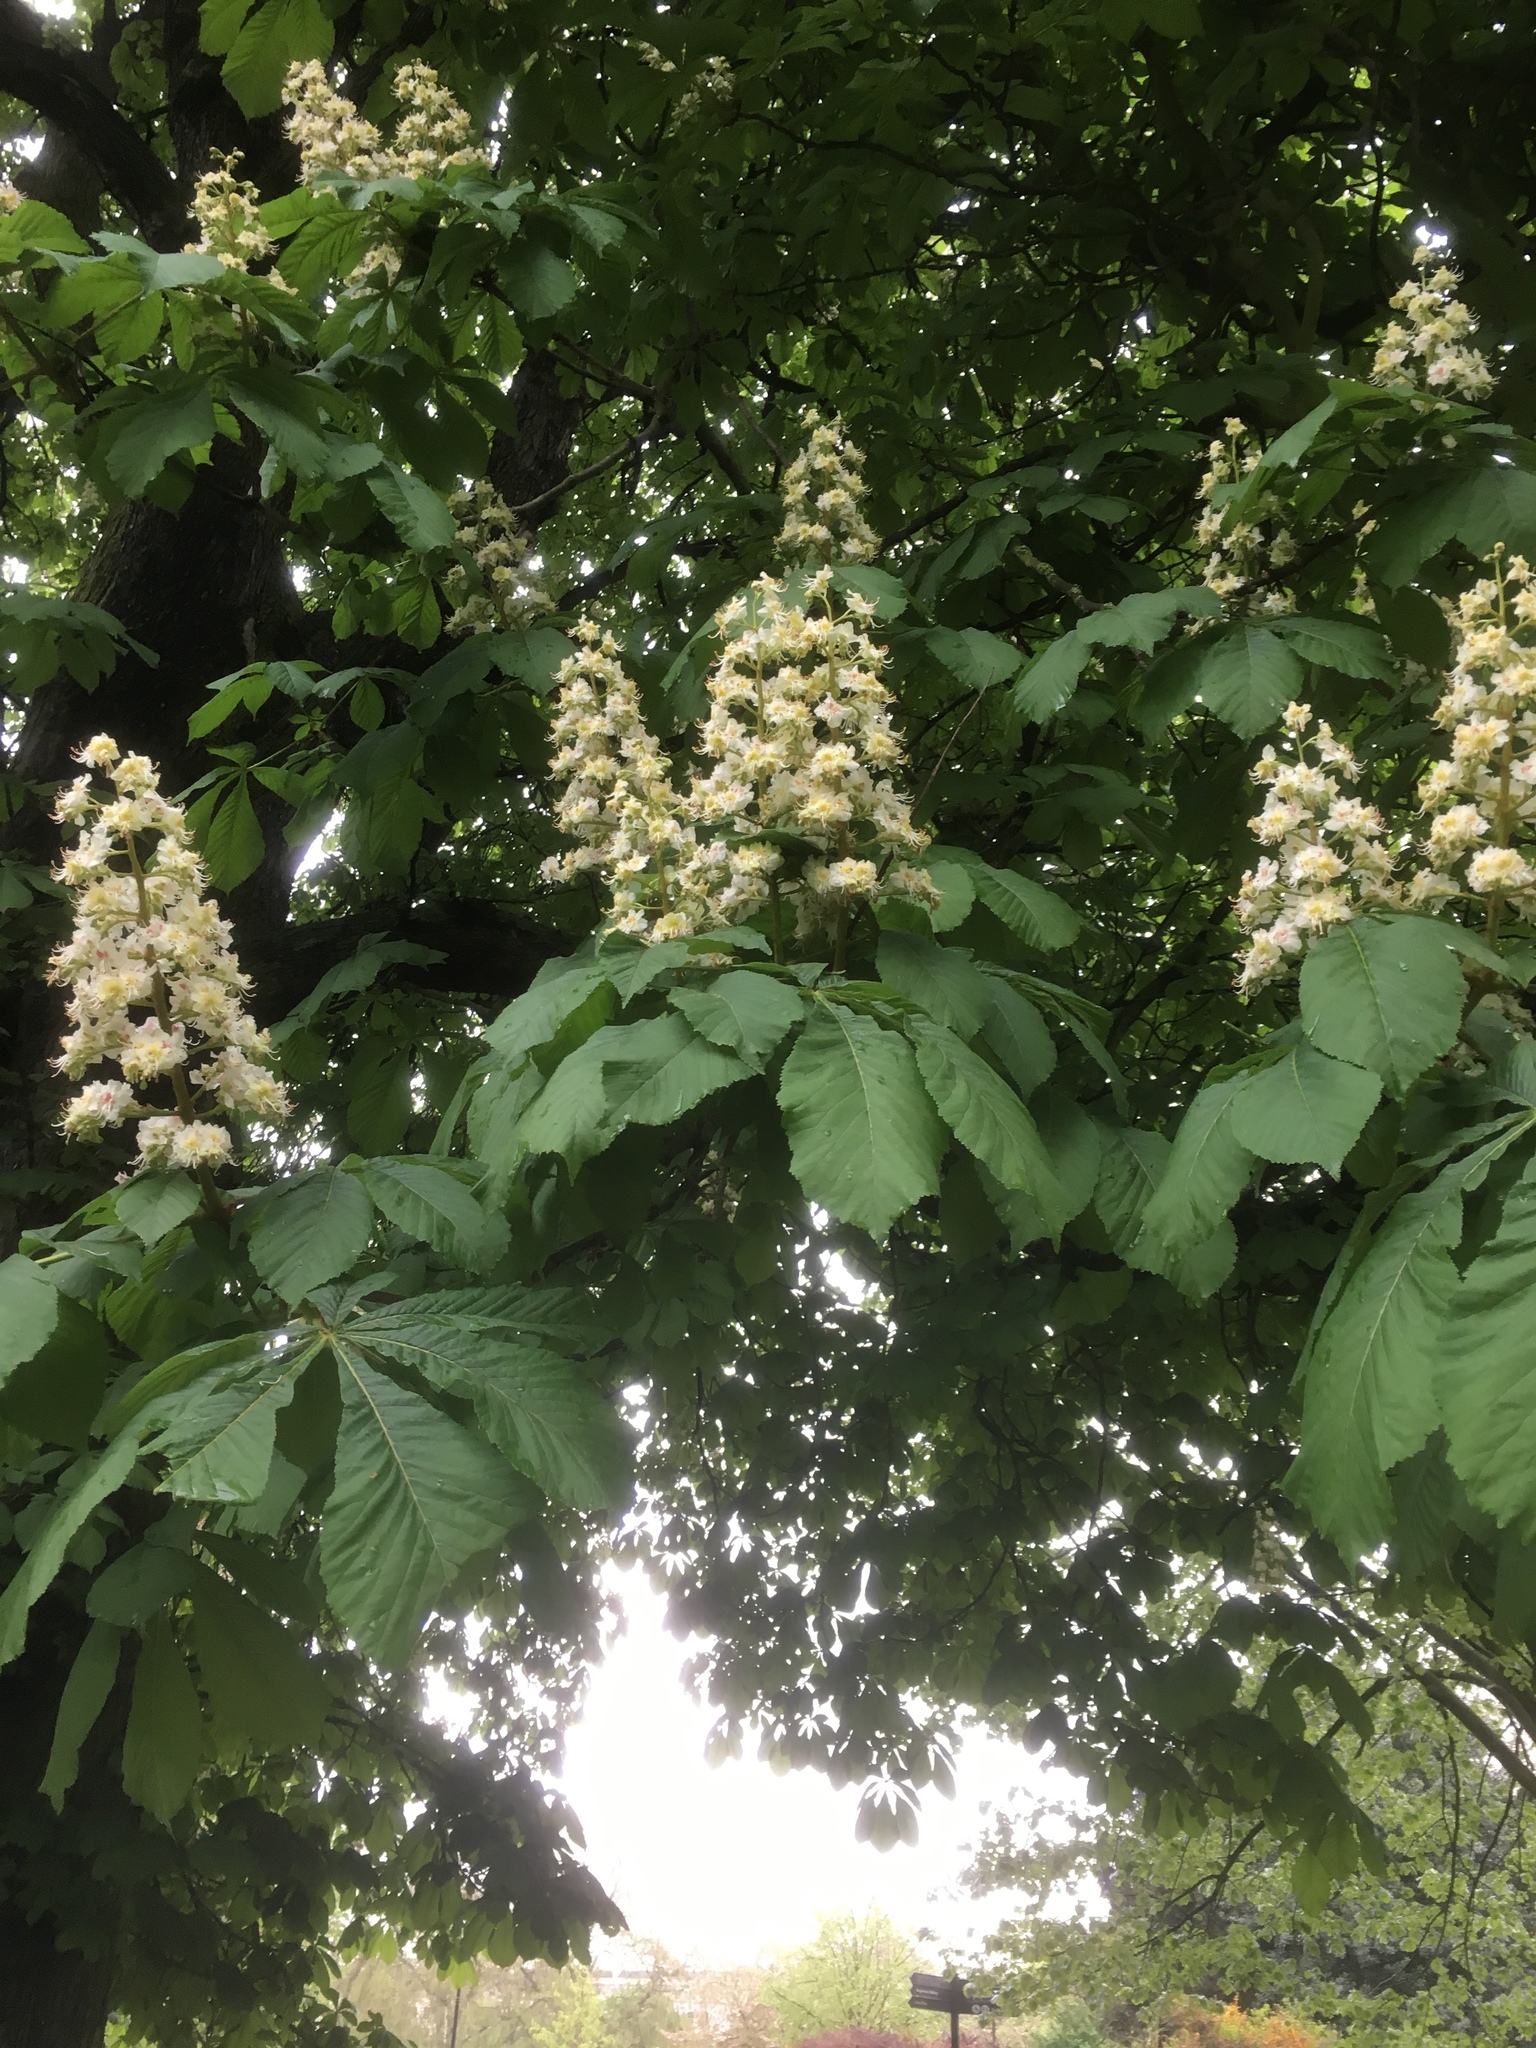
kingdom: Plantae
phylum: Tracheophyta
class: Magnoliopsida
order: Sapindales
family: Sapindaceae
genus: Aesculus
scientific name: Aesculus hippocastanum
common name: Horse-chestnut
